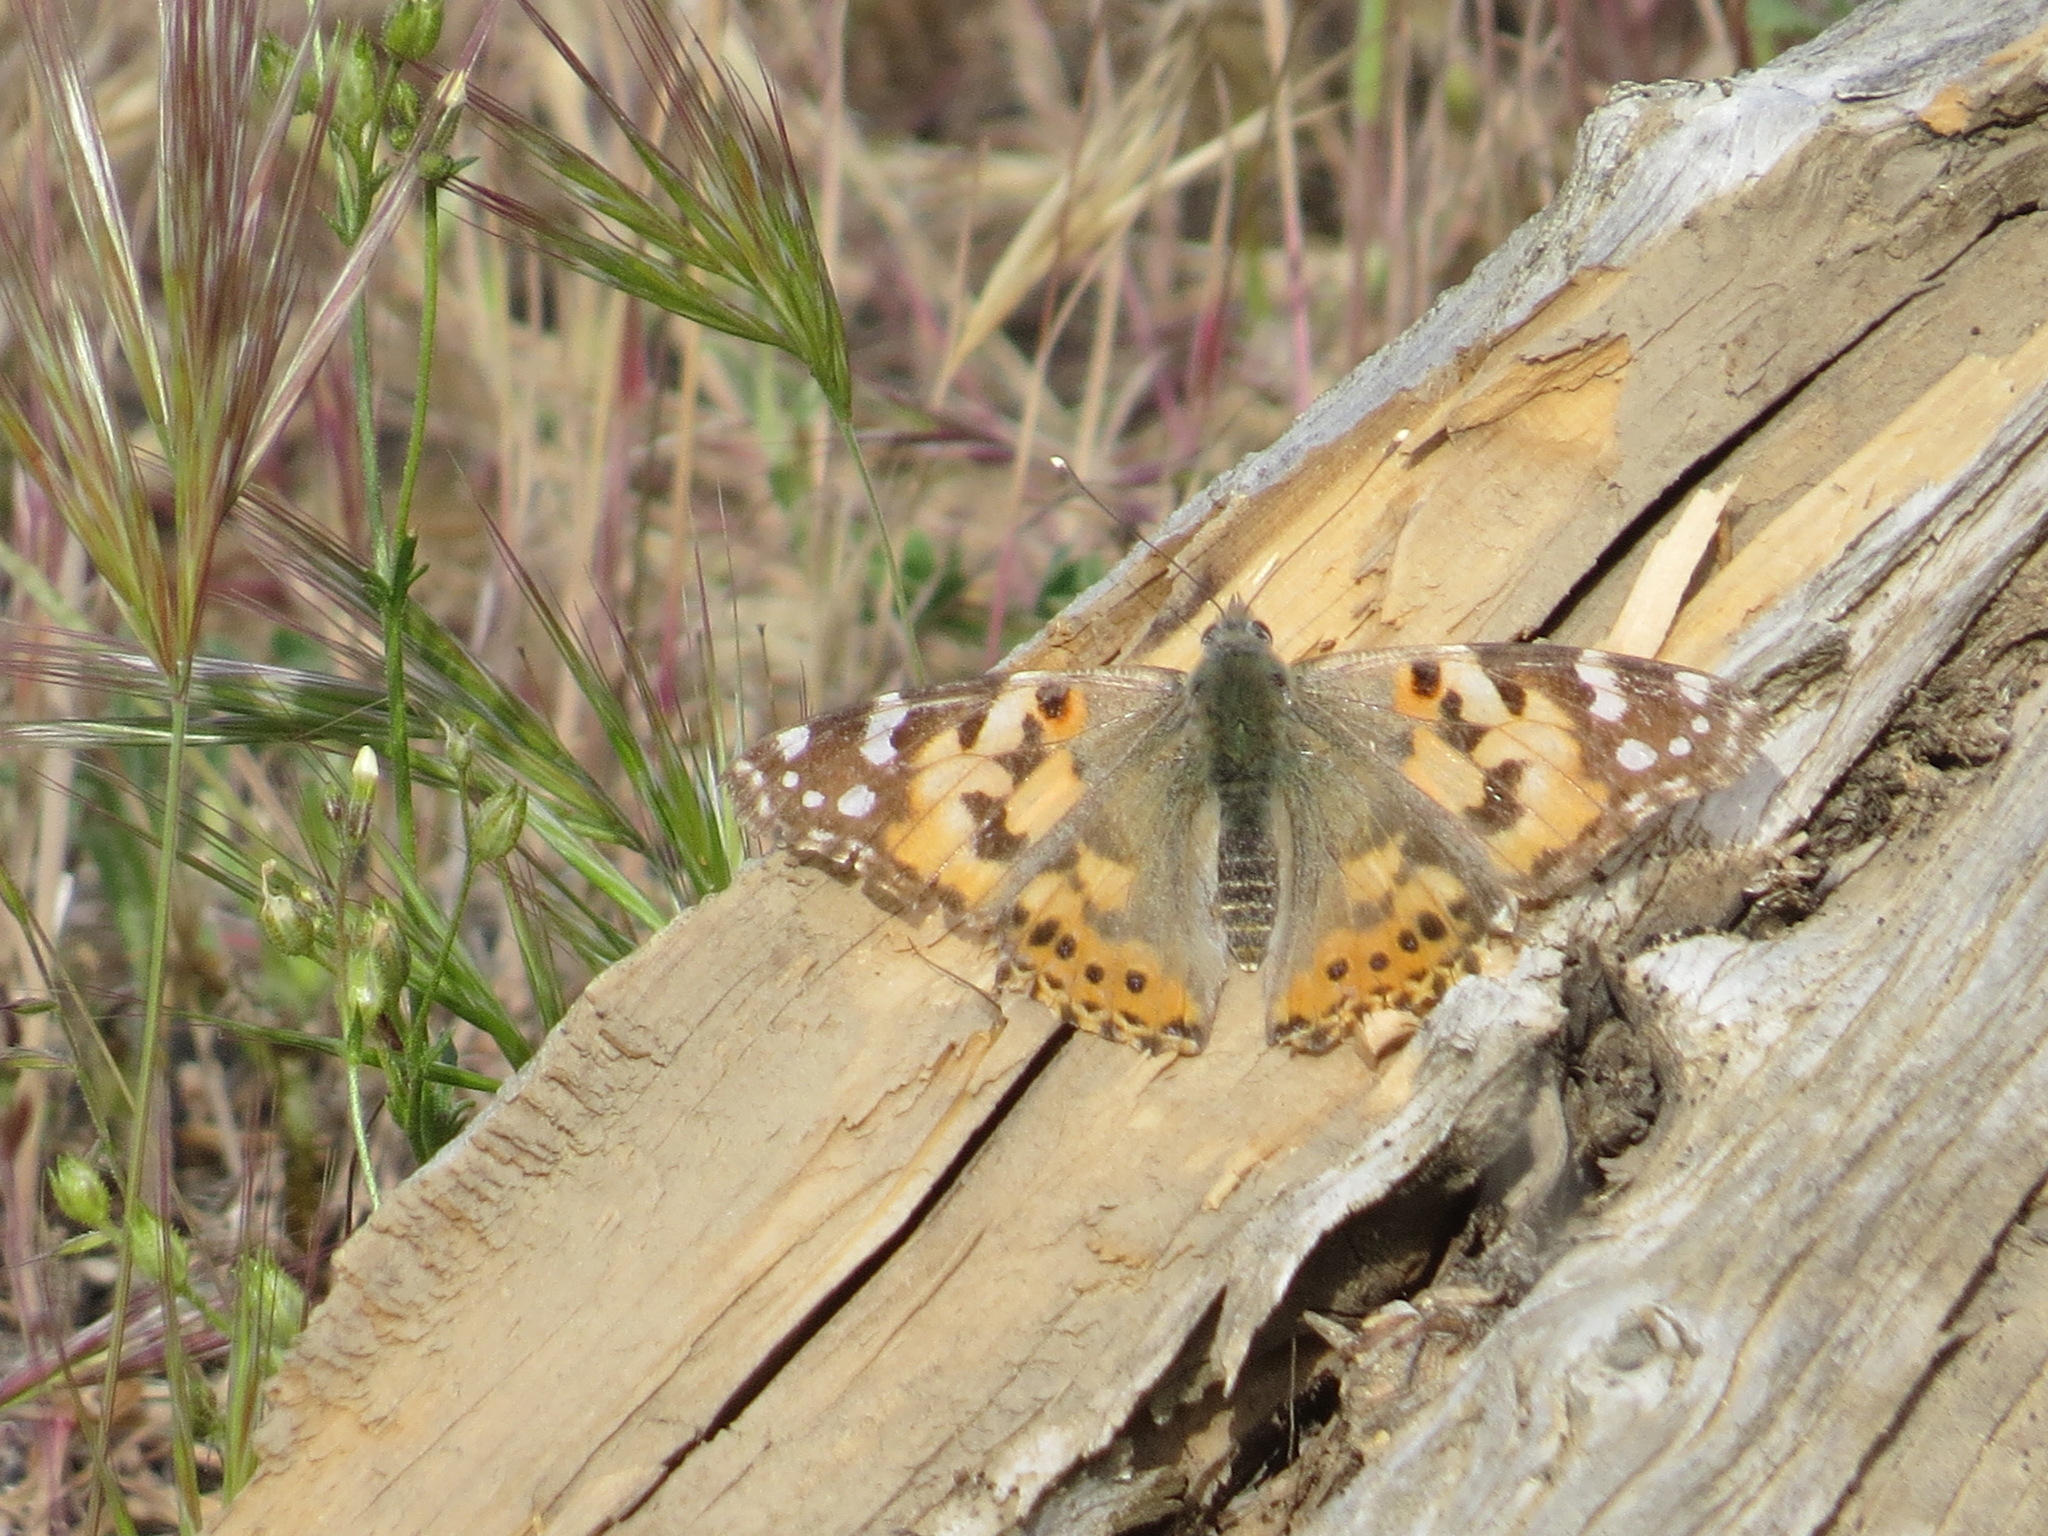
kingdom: Animalia
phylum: Arthropoda
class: Insecta
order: Lepidoptera
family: Nymphalidae
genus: Vanessa
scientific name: Vanessa cardui
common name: Painted lady
